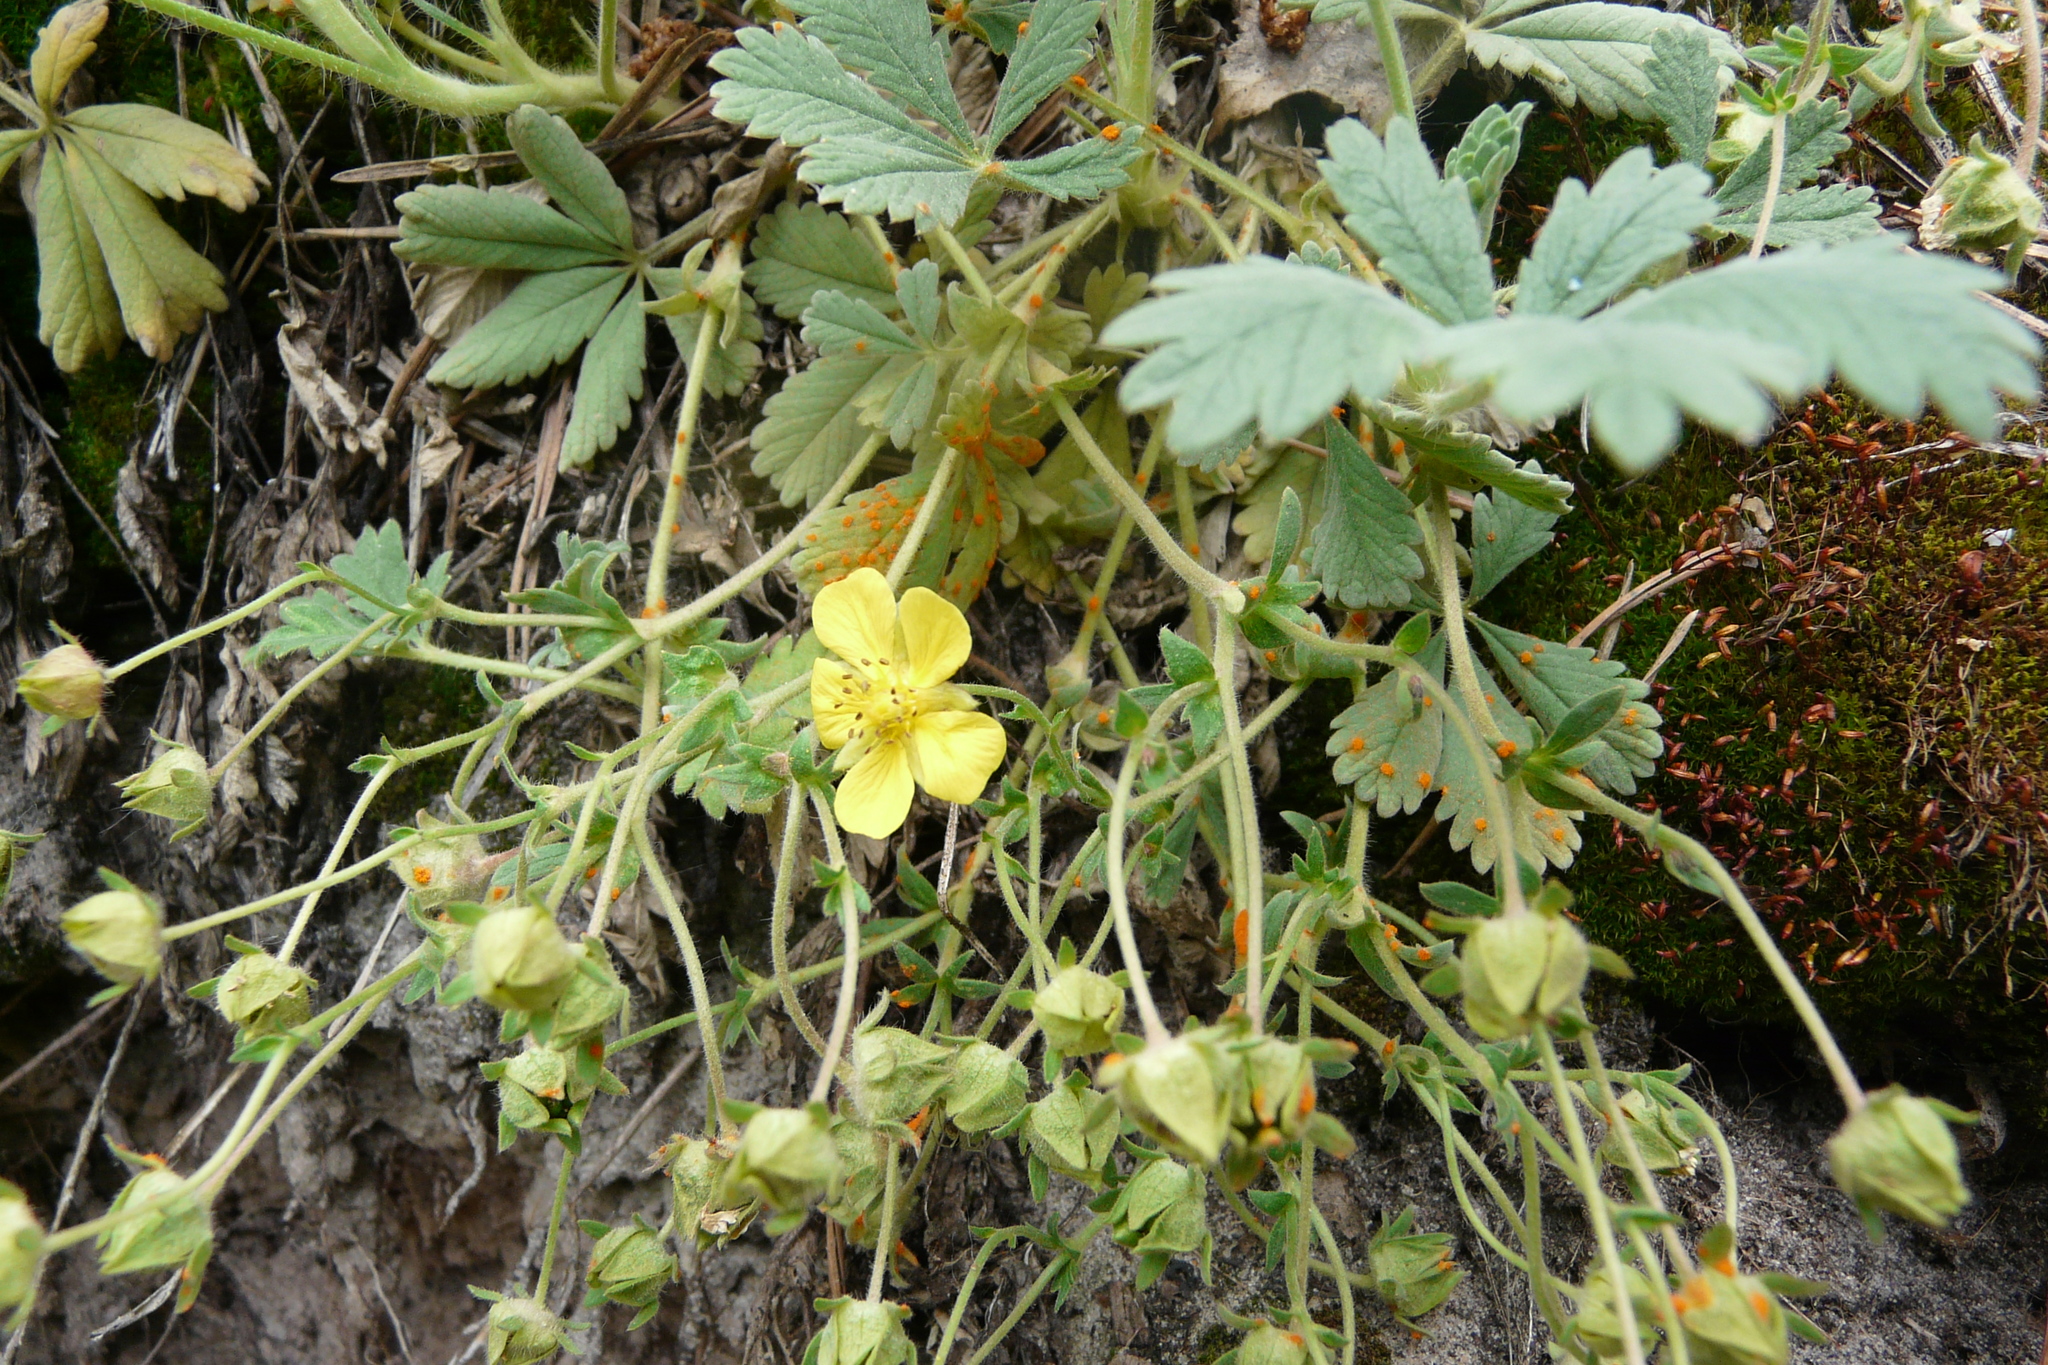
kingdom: Plantae
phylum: Tracheophyta
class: Magnoliopsida
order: Rosales
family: Rosaceae
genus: Potentilla
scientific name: Potentilla incana
